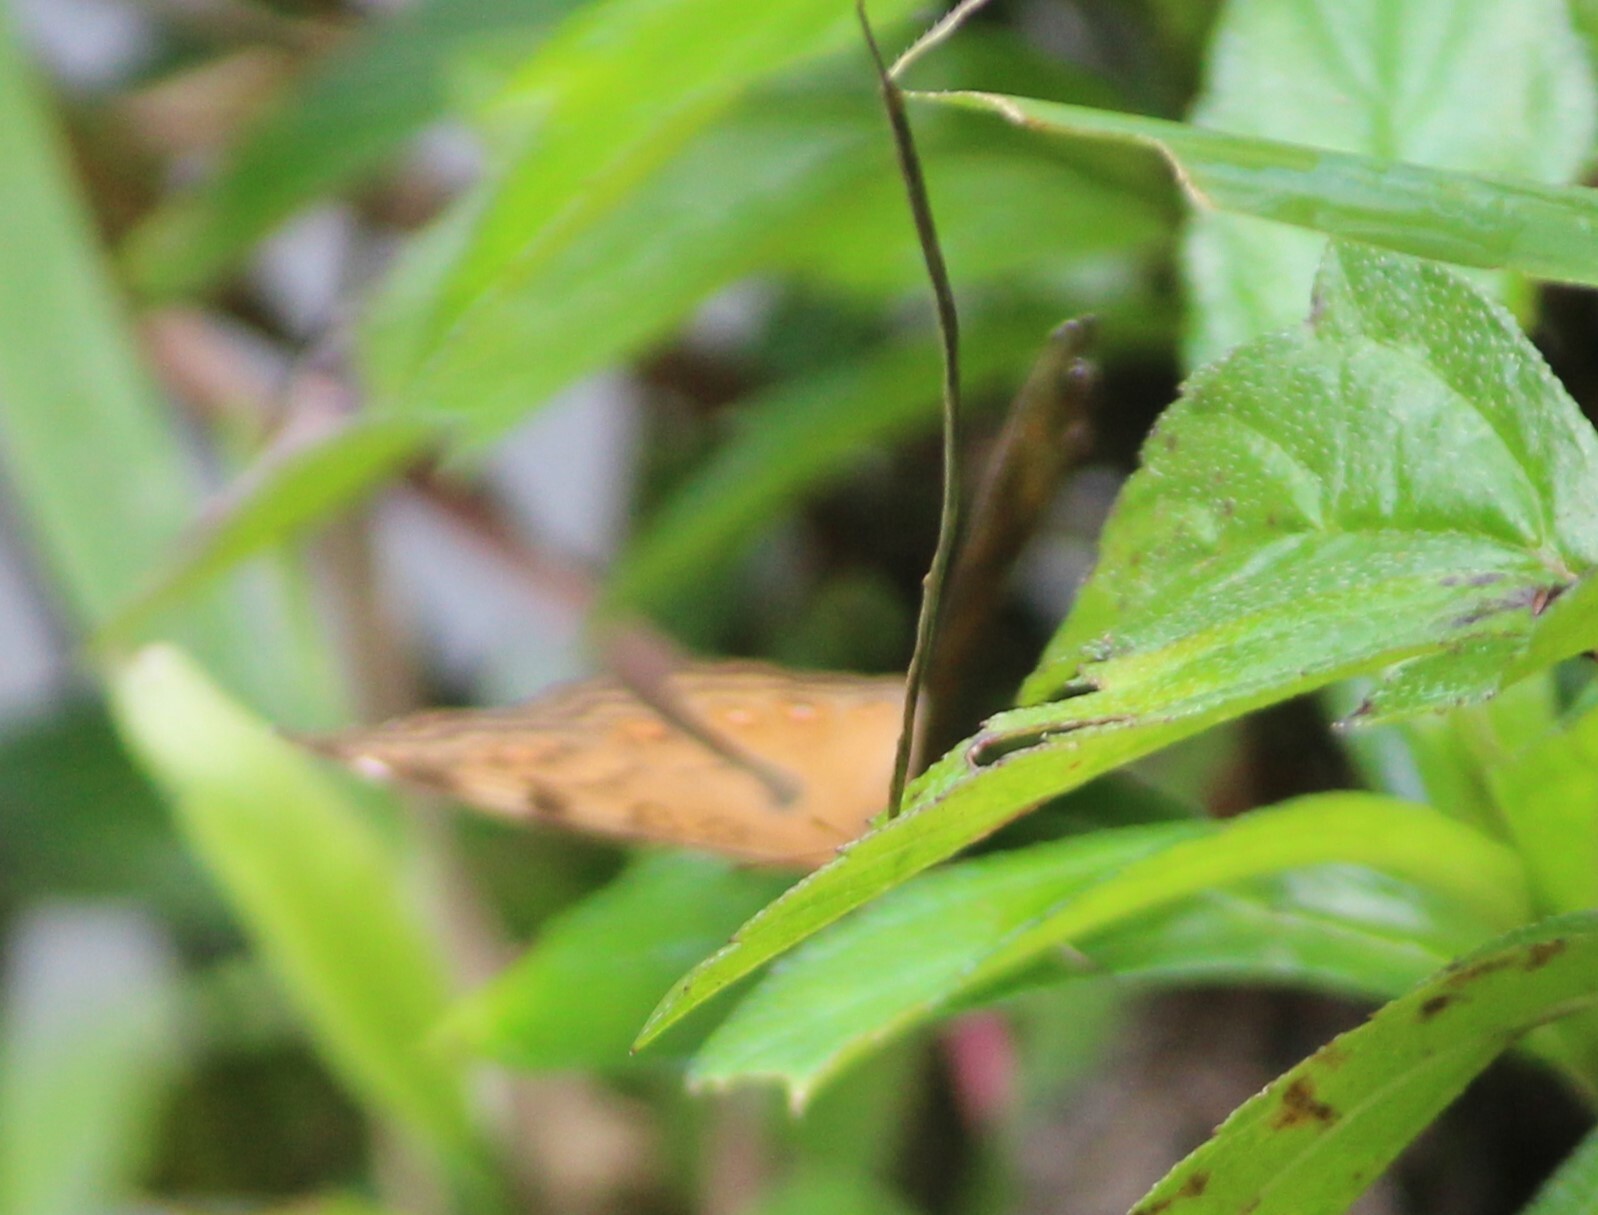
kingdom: Animalia
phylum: Arthropoda
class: Insecta
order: Lepidoptera
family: Nymphalidae
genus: Junonia
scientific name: Junonia hedonia
